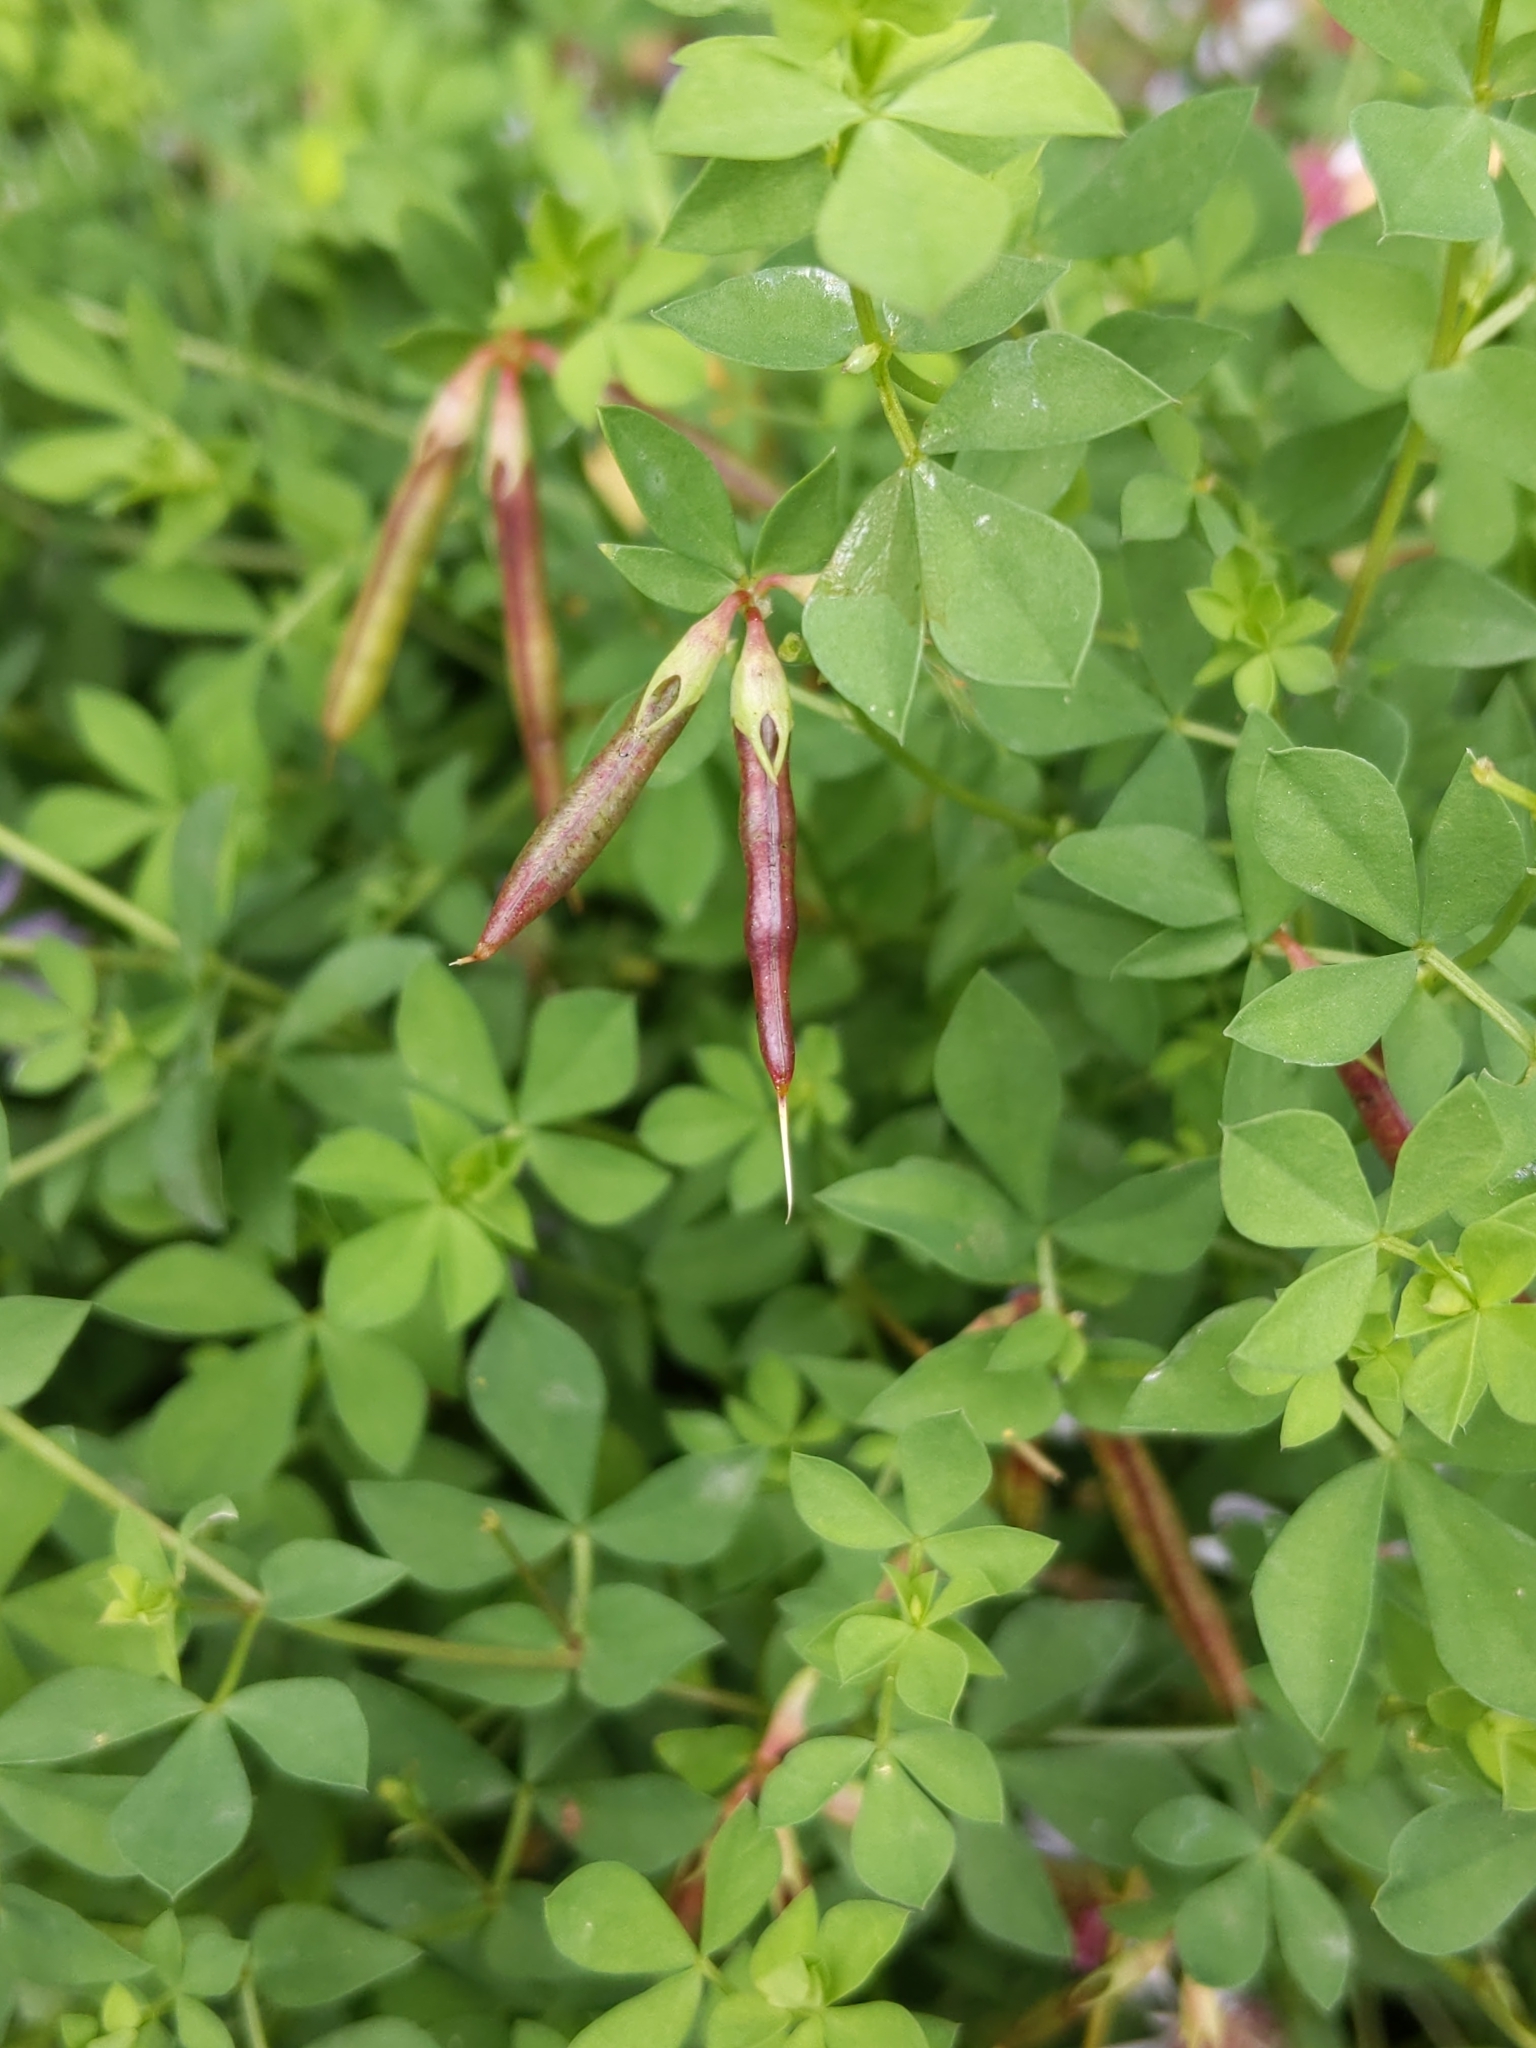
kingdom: Plantae
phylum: Tracheophyta
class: Magnoliopsida
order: Fabales
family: Fabaceae
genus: Lotus
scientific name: Lotus corniculatus
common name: Common bird's-foot-trefoil
